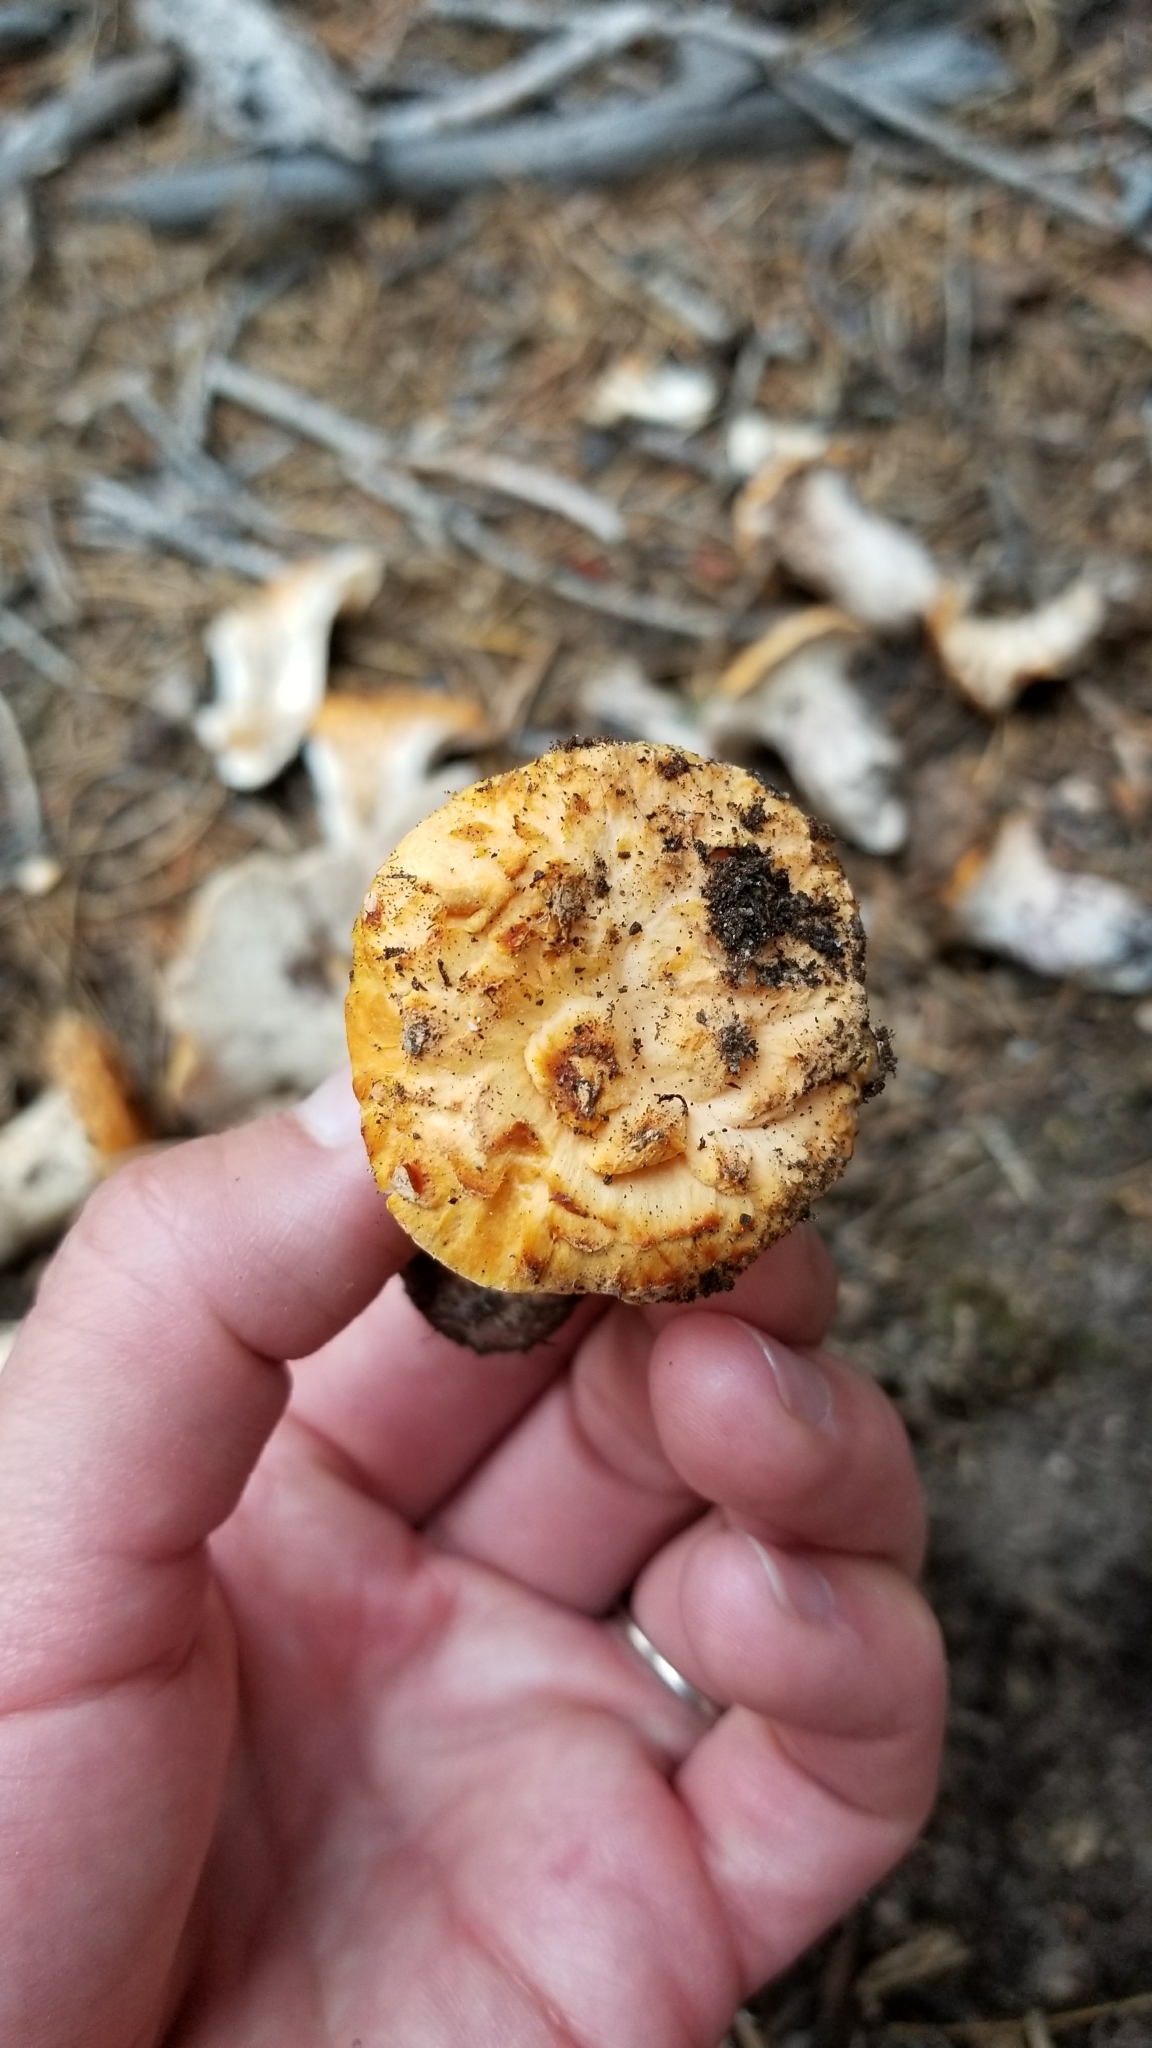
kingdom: Fungi
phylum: Basidiomycota
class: Agaricomycetes
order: Gomphales
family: Gomphaceae
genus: Turbinellus
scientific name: Turbinellus floccosus
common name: Scaly chanterelle
